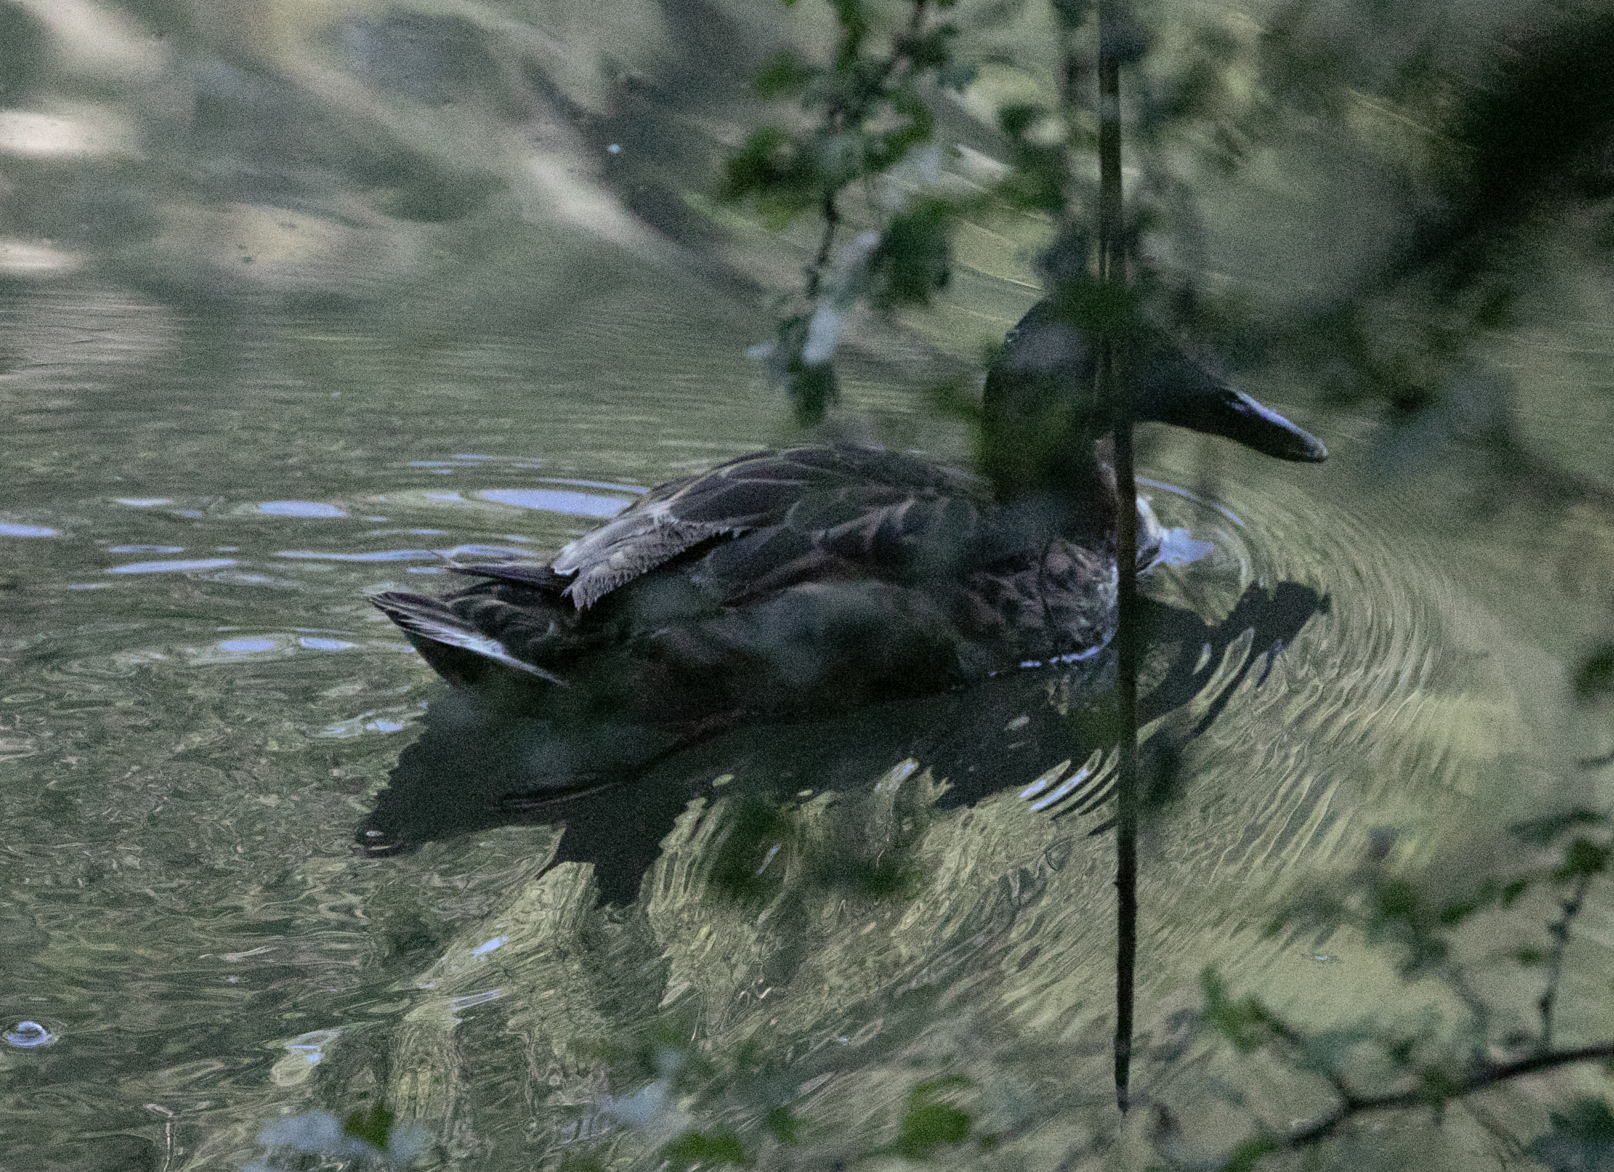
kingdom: Animalia
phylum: Chordata
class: Aves
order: Anseriformes
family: Anatidae
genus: Spatula
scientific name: Spatula clypeata
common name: Northern shoveler
